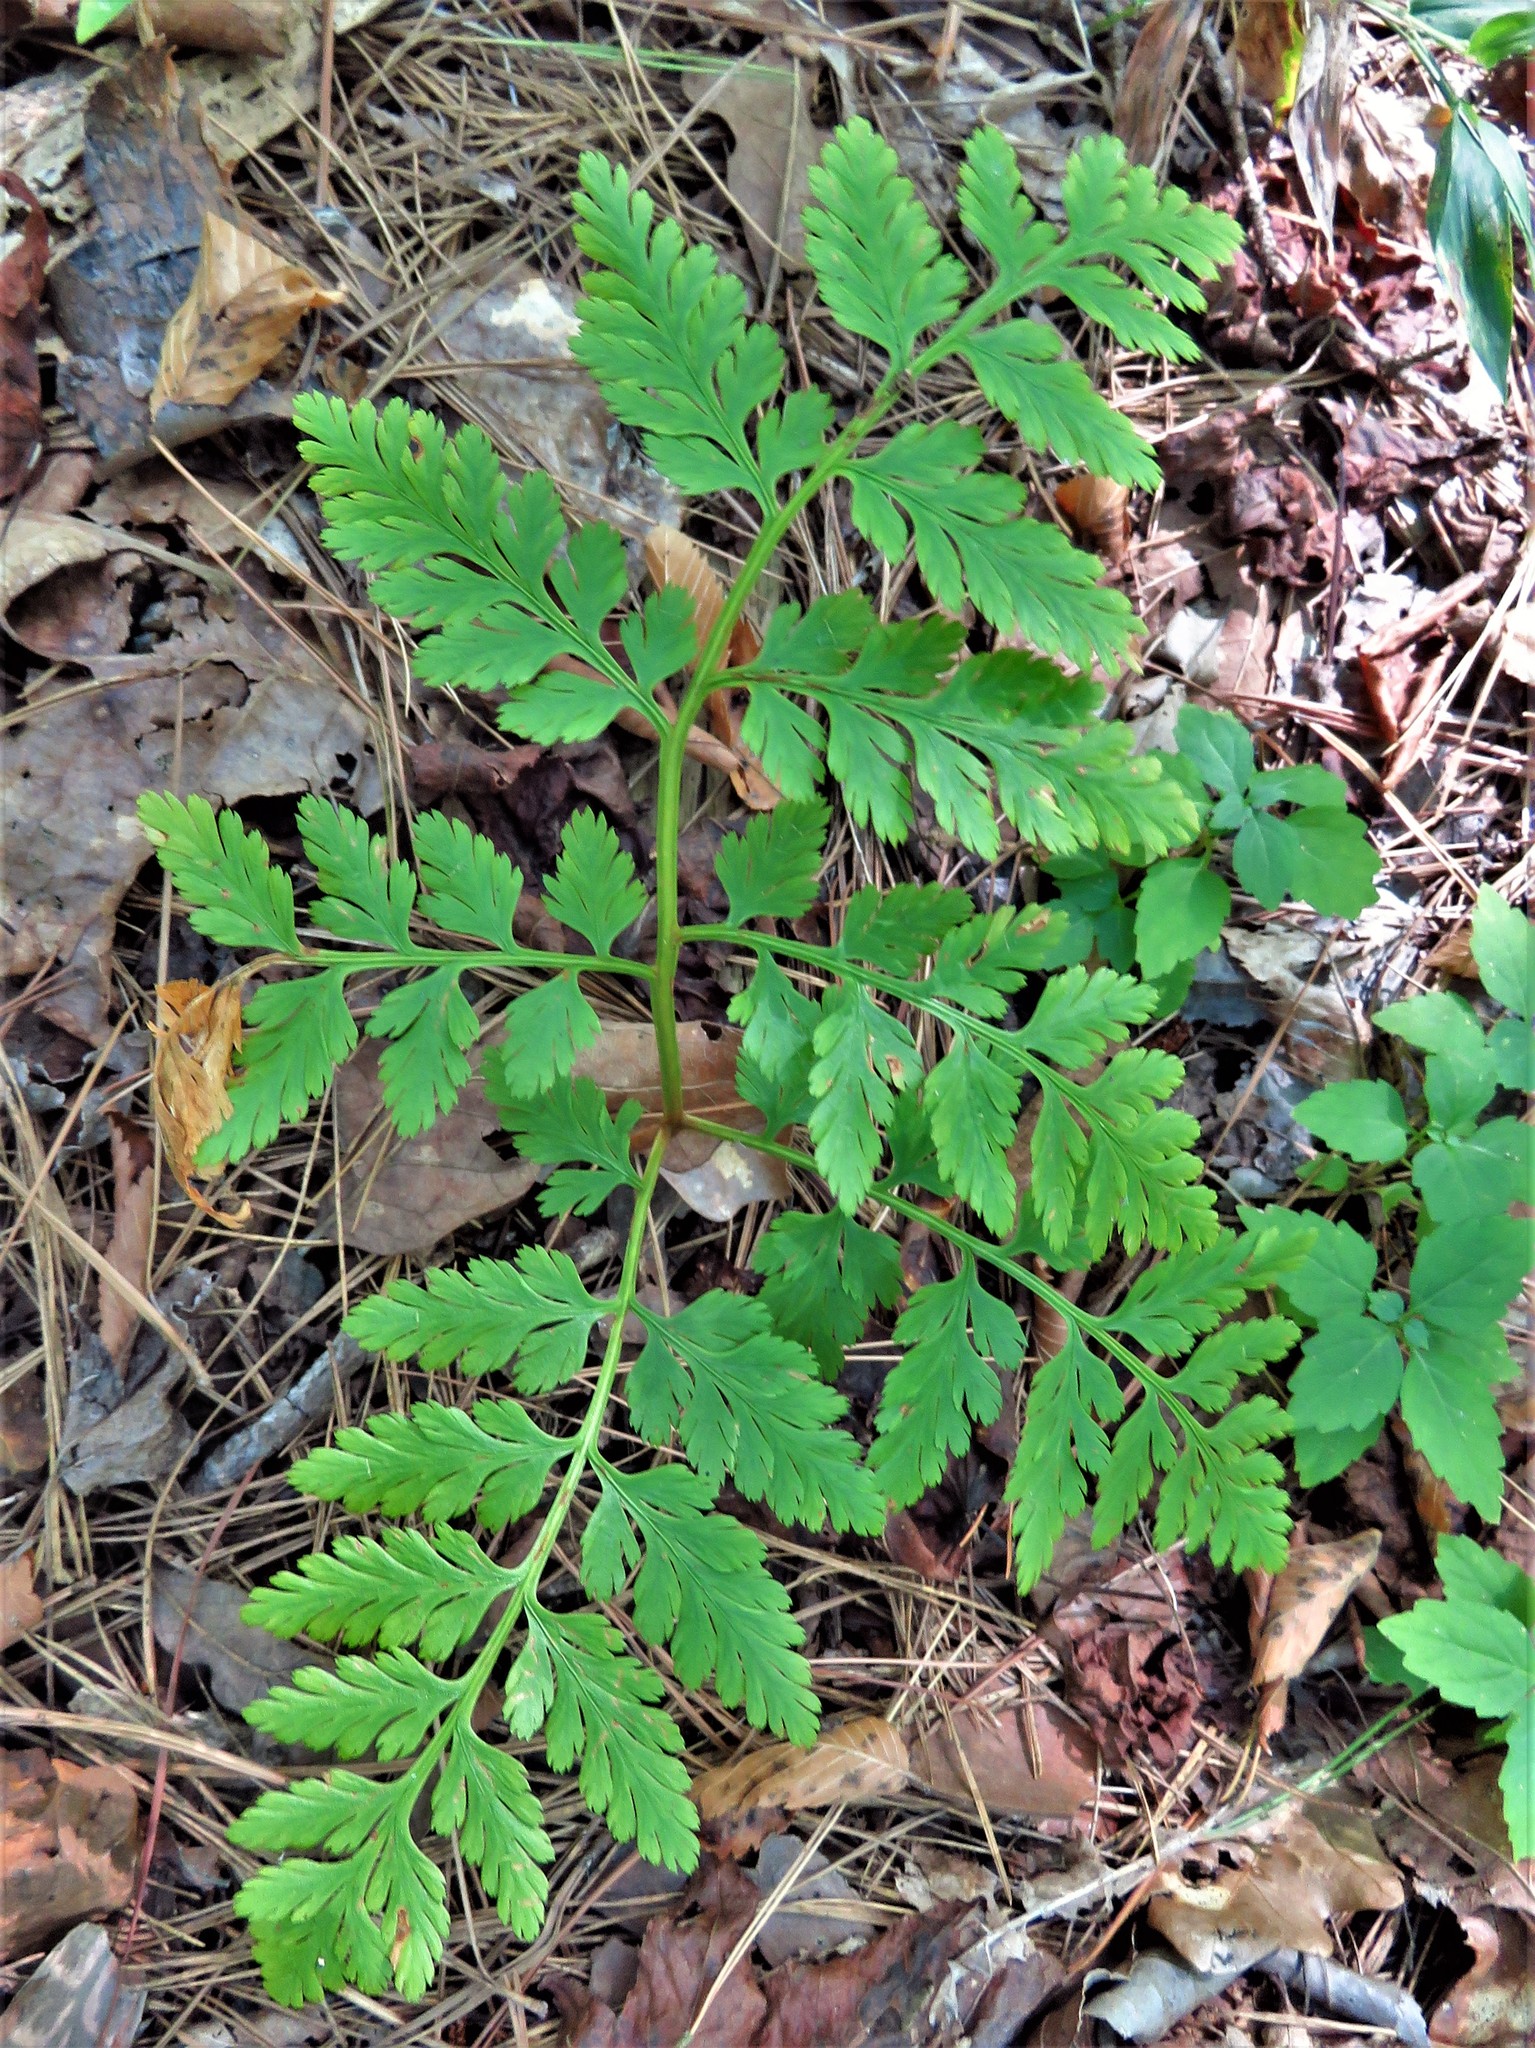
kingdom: Plantae
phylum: Tracheophyta
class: Polypodiopsida
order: Ophioglossales
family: Ophioglossaceae
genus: Botrypus
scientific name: Botrypus virginianus
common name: Common grapefern
